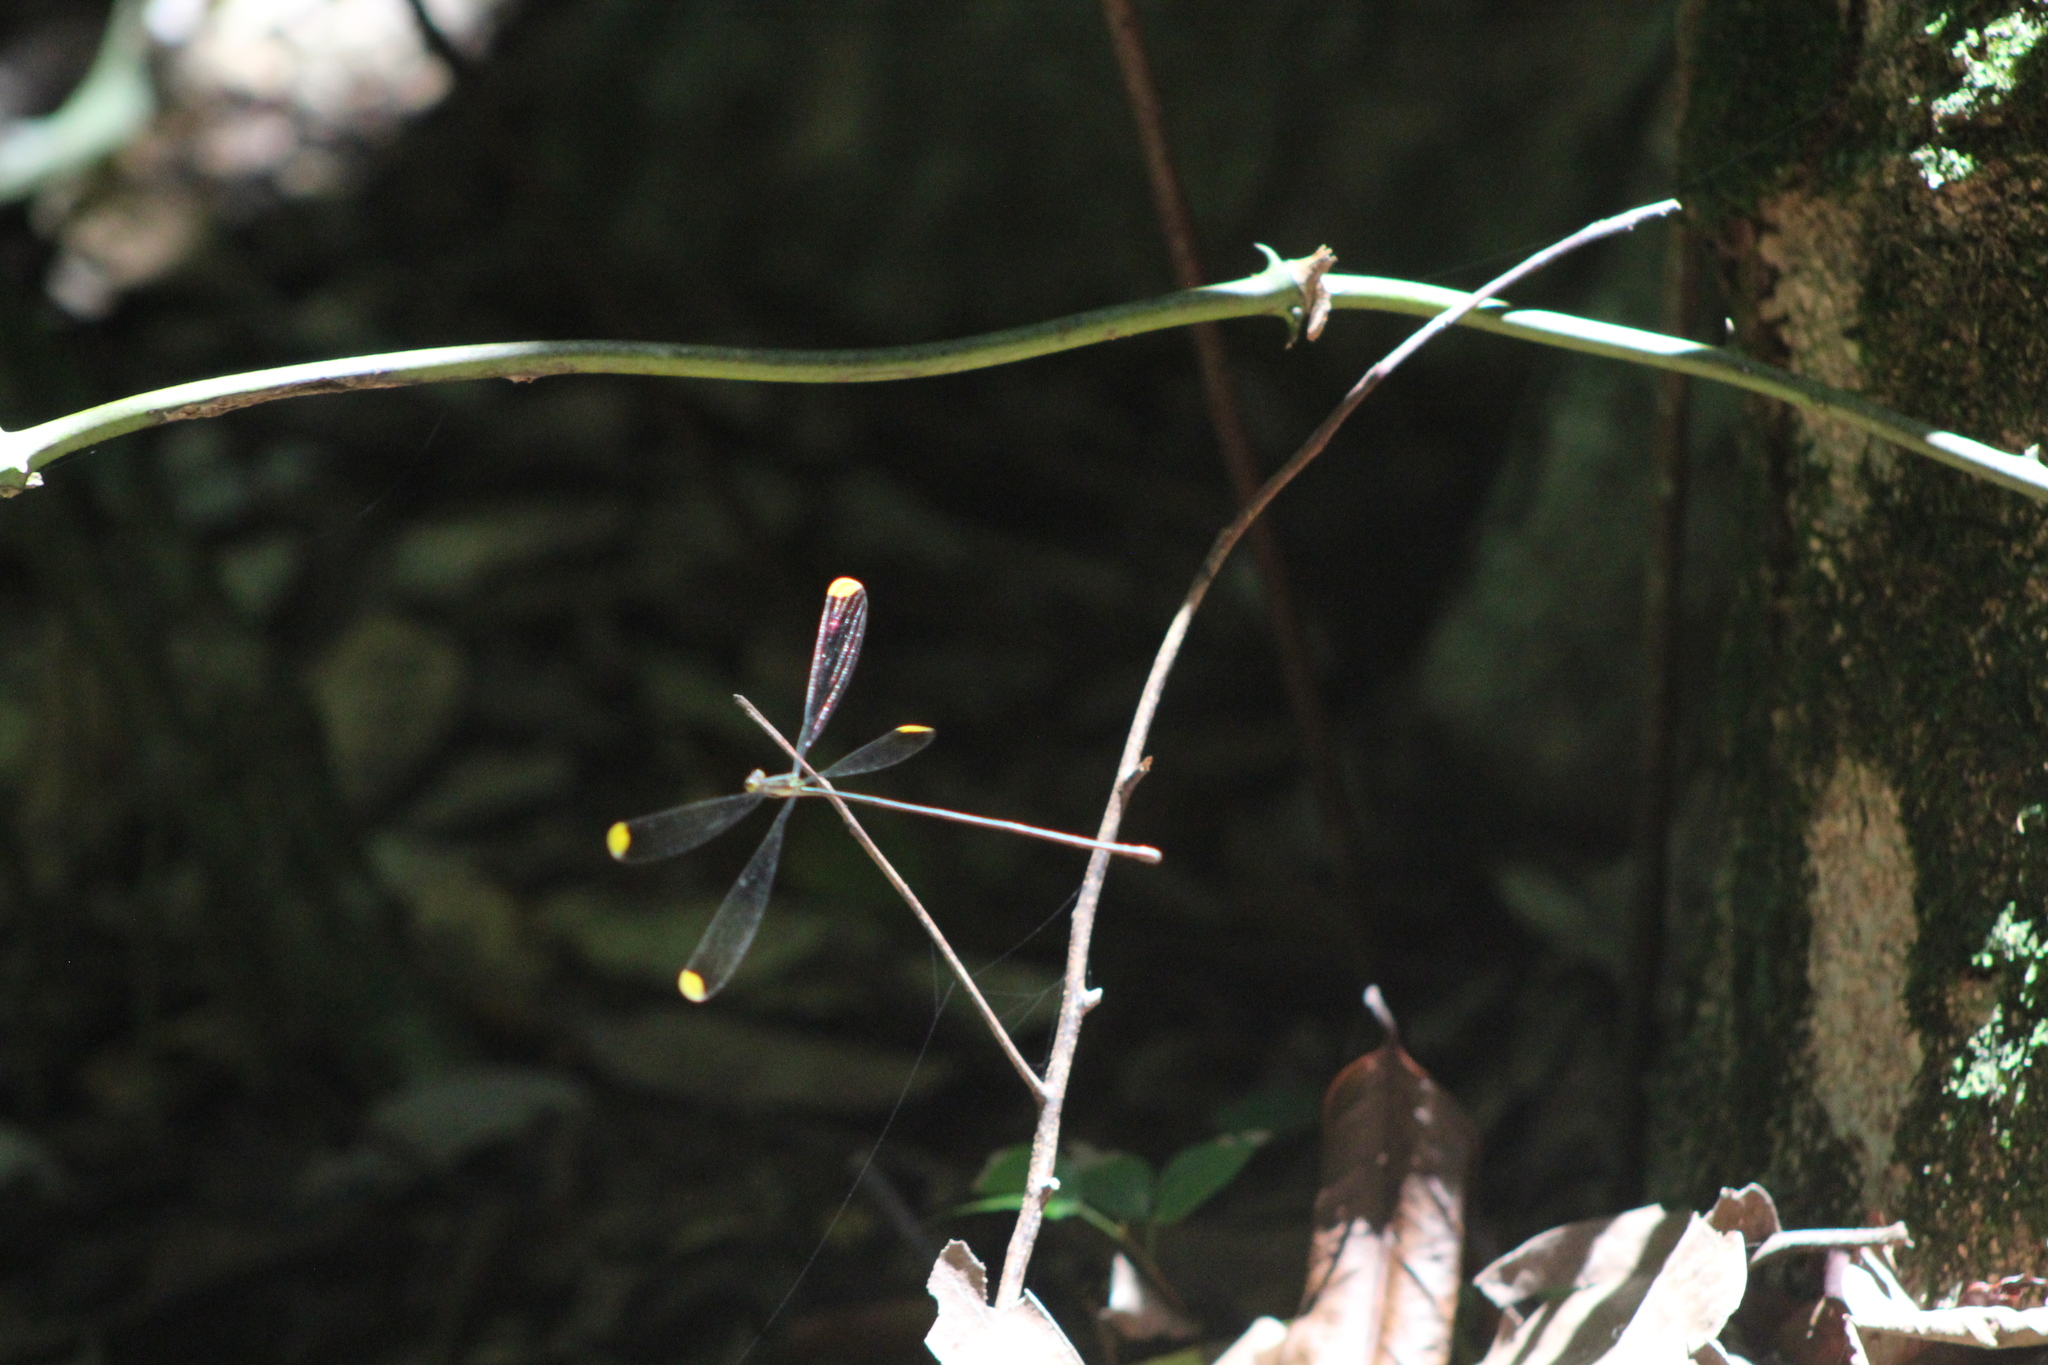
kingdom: Animalia
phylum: Arthropoda
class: Insecta
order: Odonata
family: Coenagrionidae
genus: Mecistogaster
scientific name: Mecistogaster ornata
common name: Ornate helicopter
